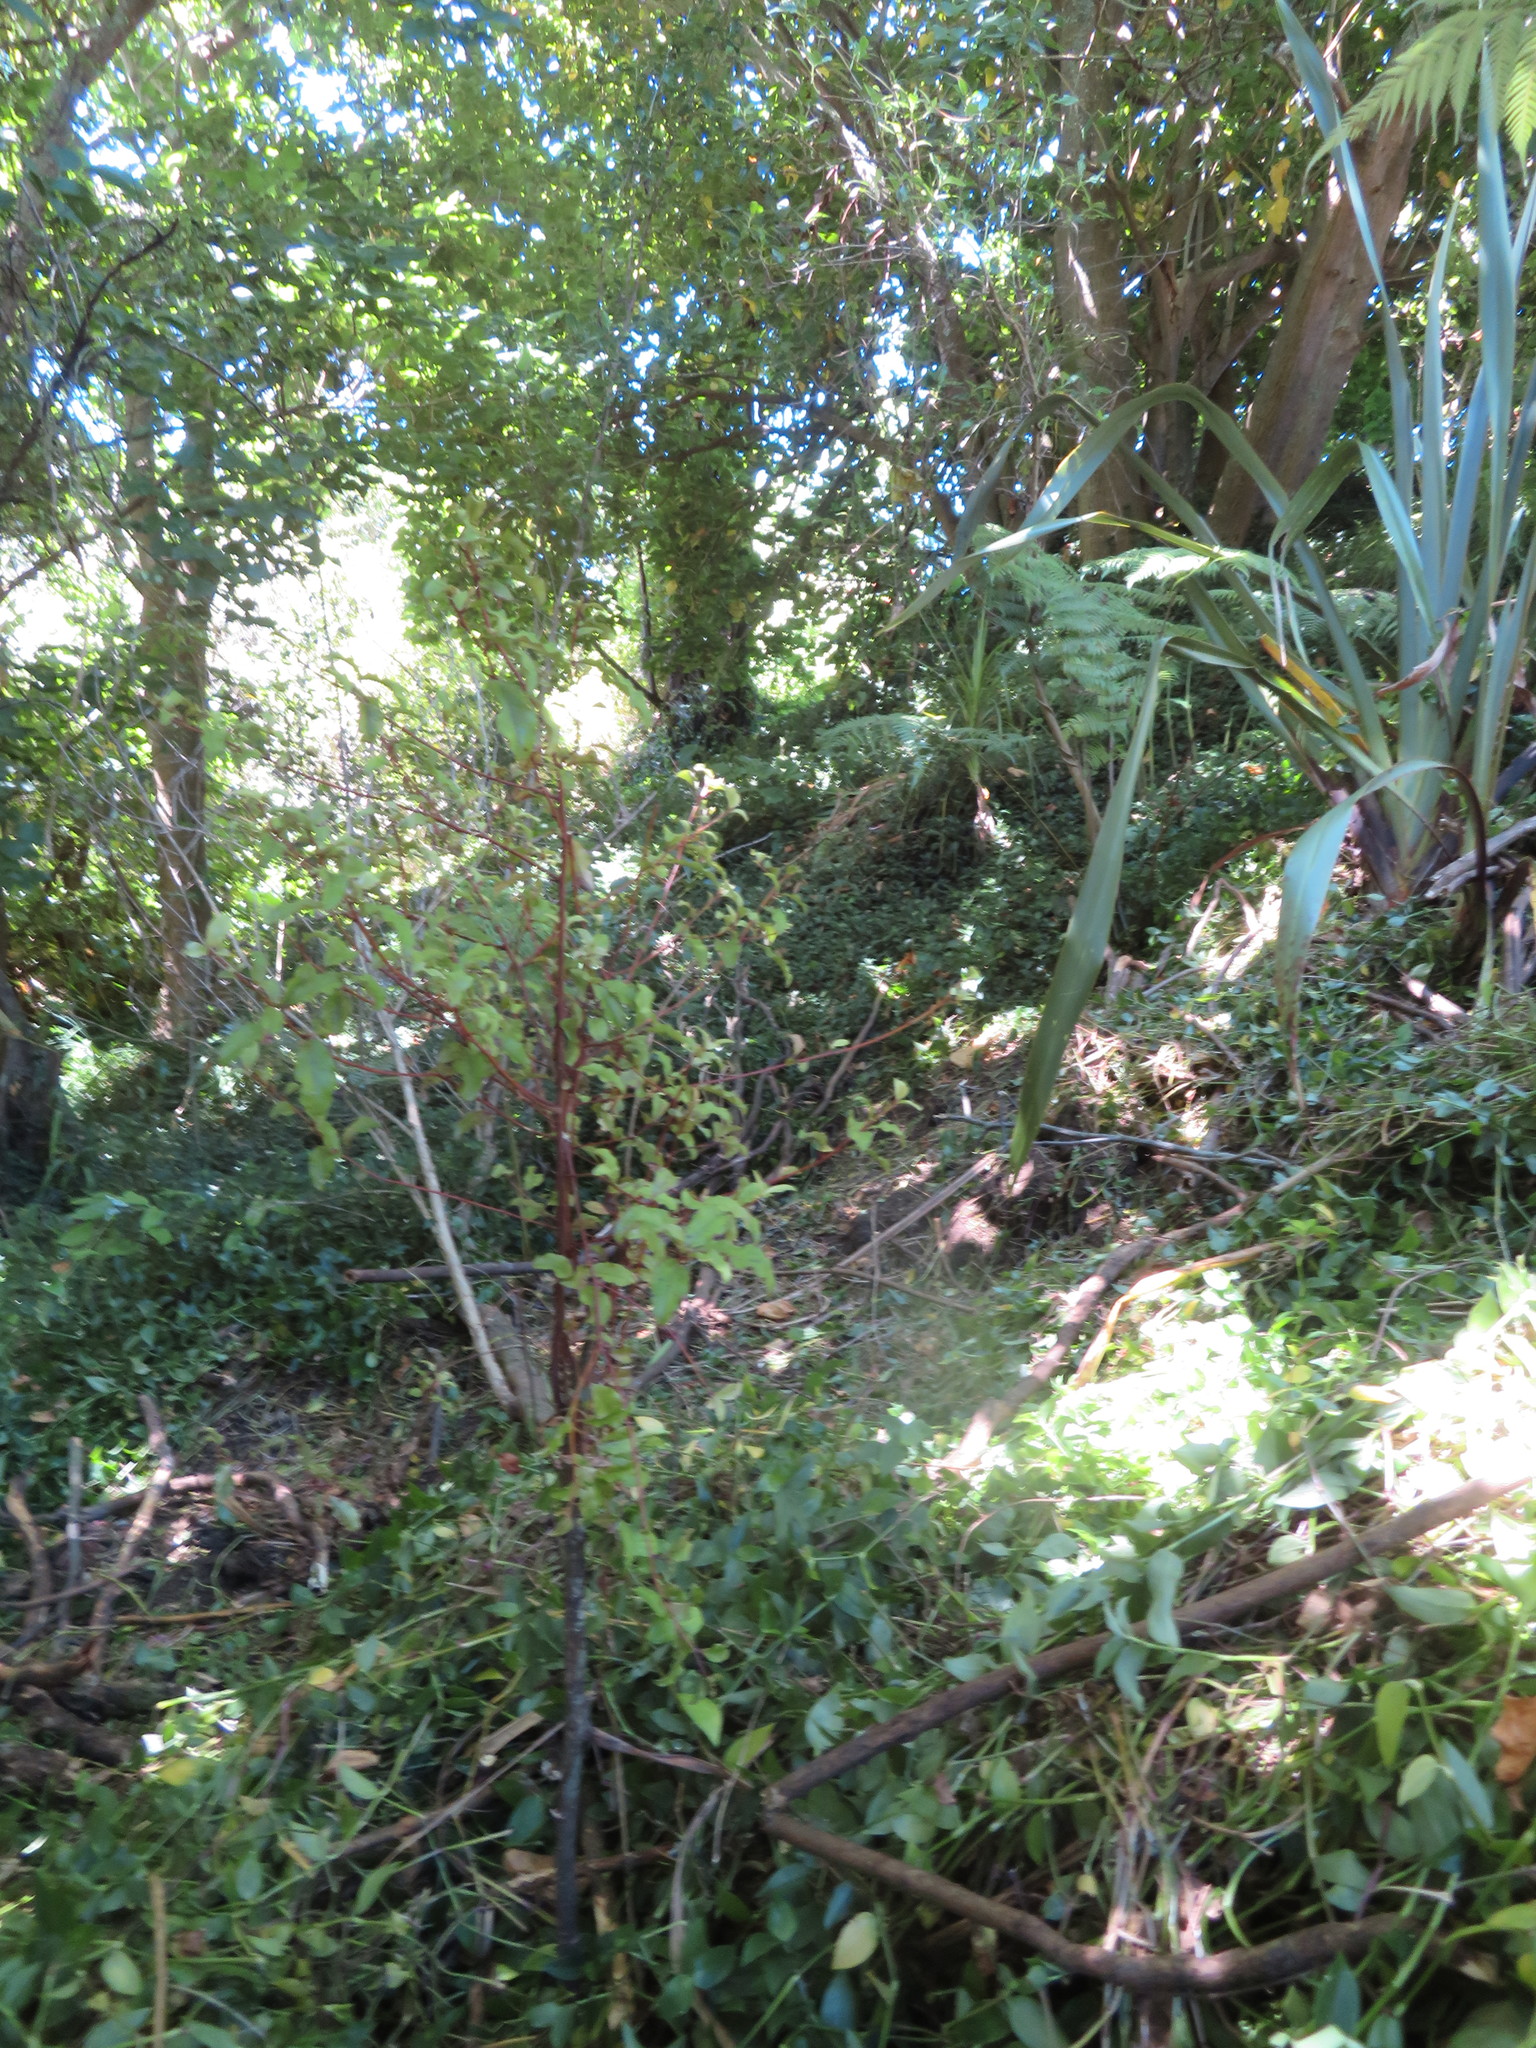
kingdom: Plantae
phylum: Tracheophyta
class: Magnoliopsida
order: Ericales
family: Primulaceae
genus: Myrsine
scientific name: Myrsine australis
